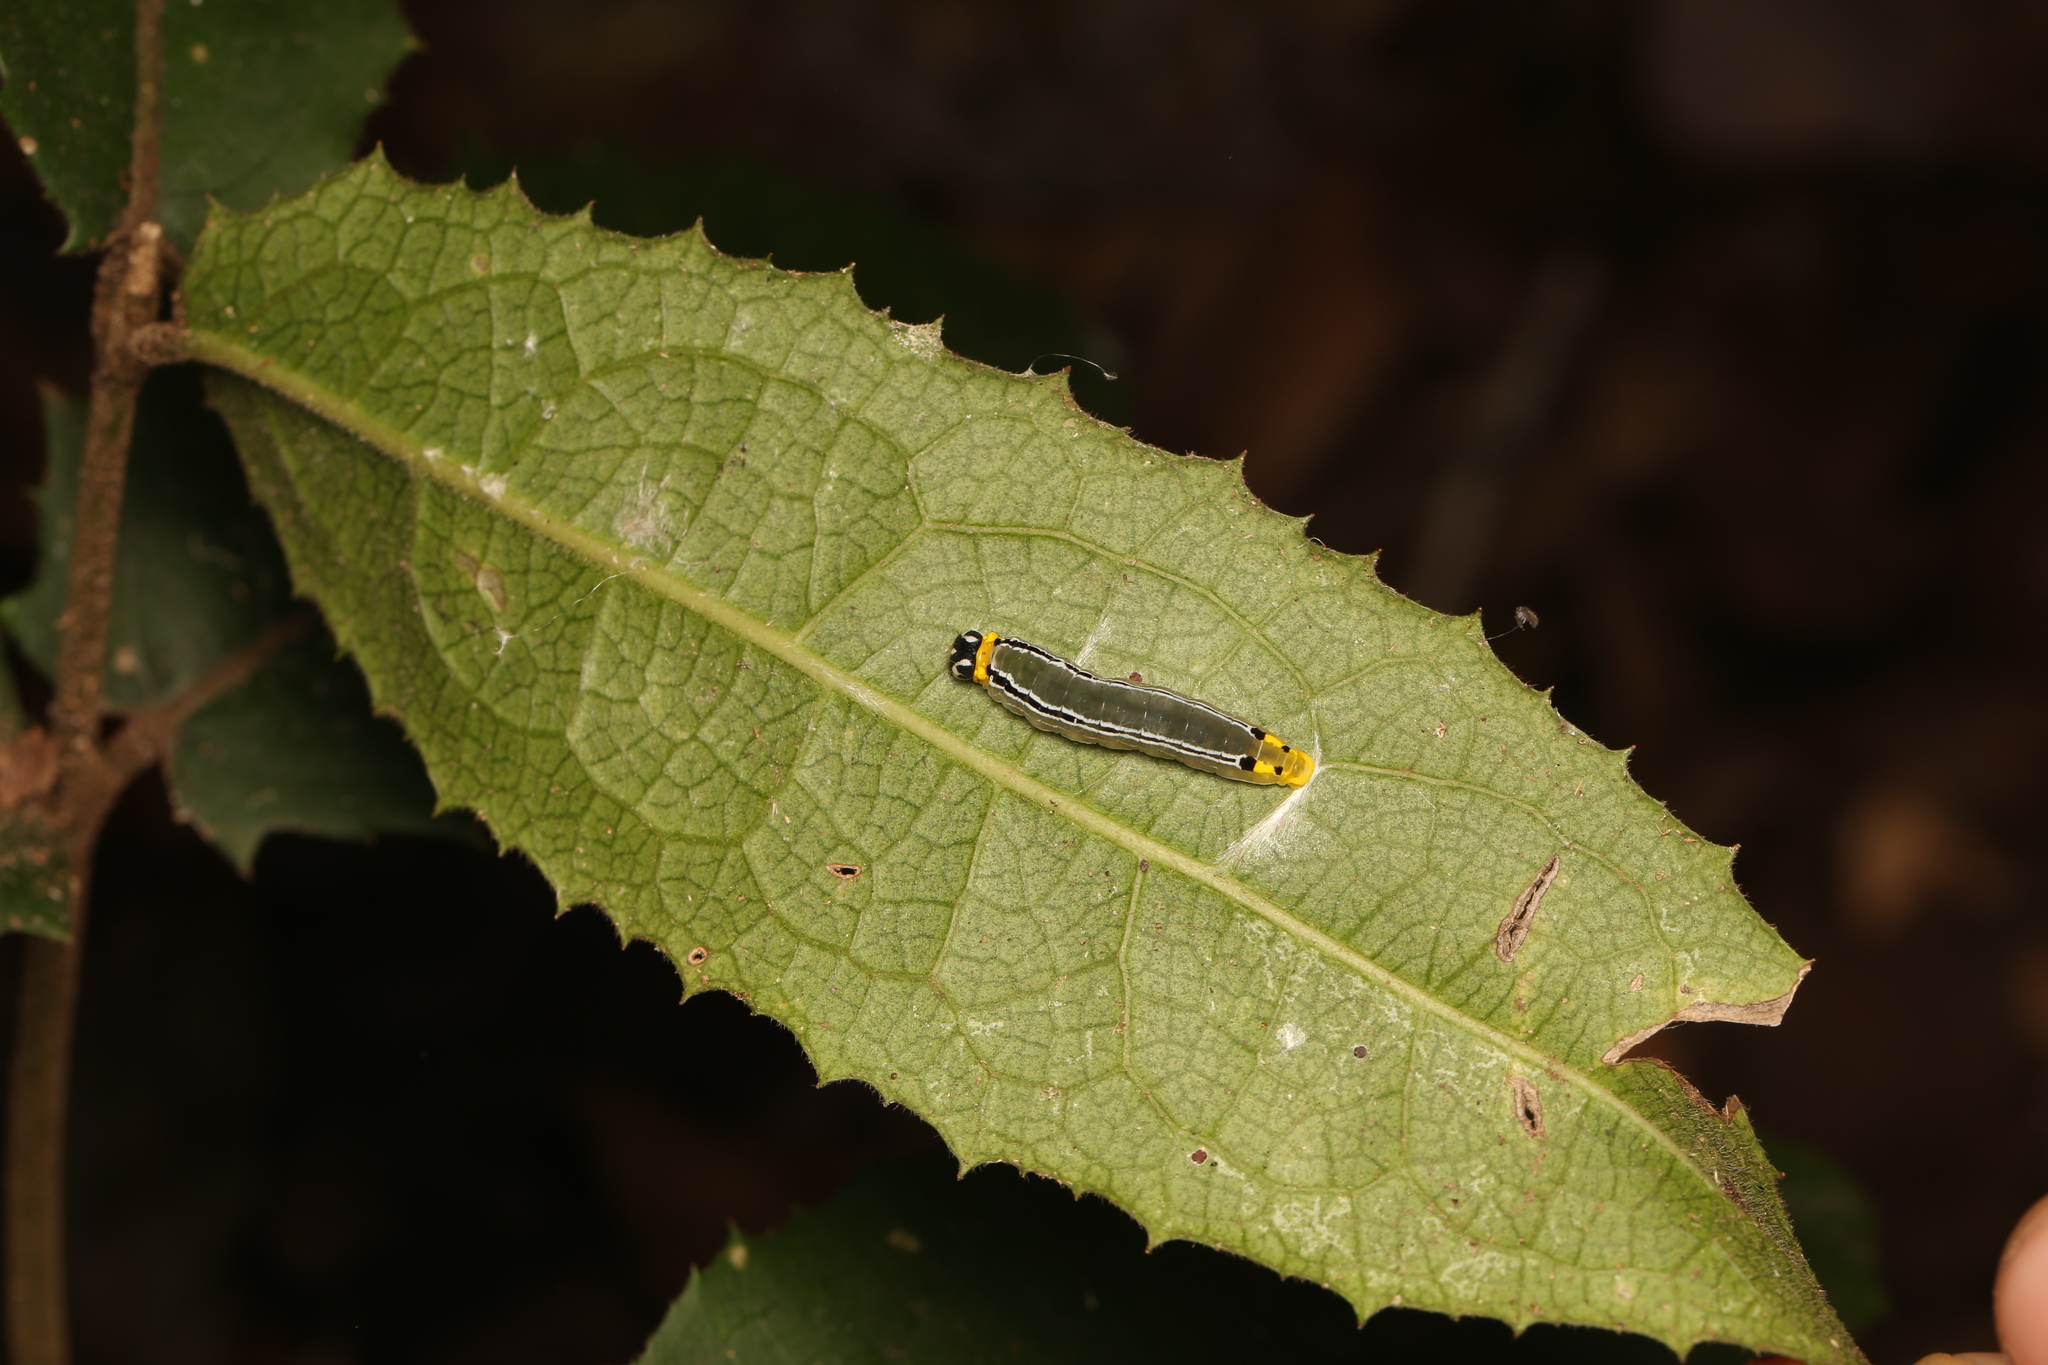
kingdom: Animalia
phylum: Arthropoda
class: Insecta
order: Lepidoptera
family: Hesperiidae
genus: Euschemon
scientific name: Euschemon rafflesia
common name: Regent skipper
